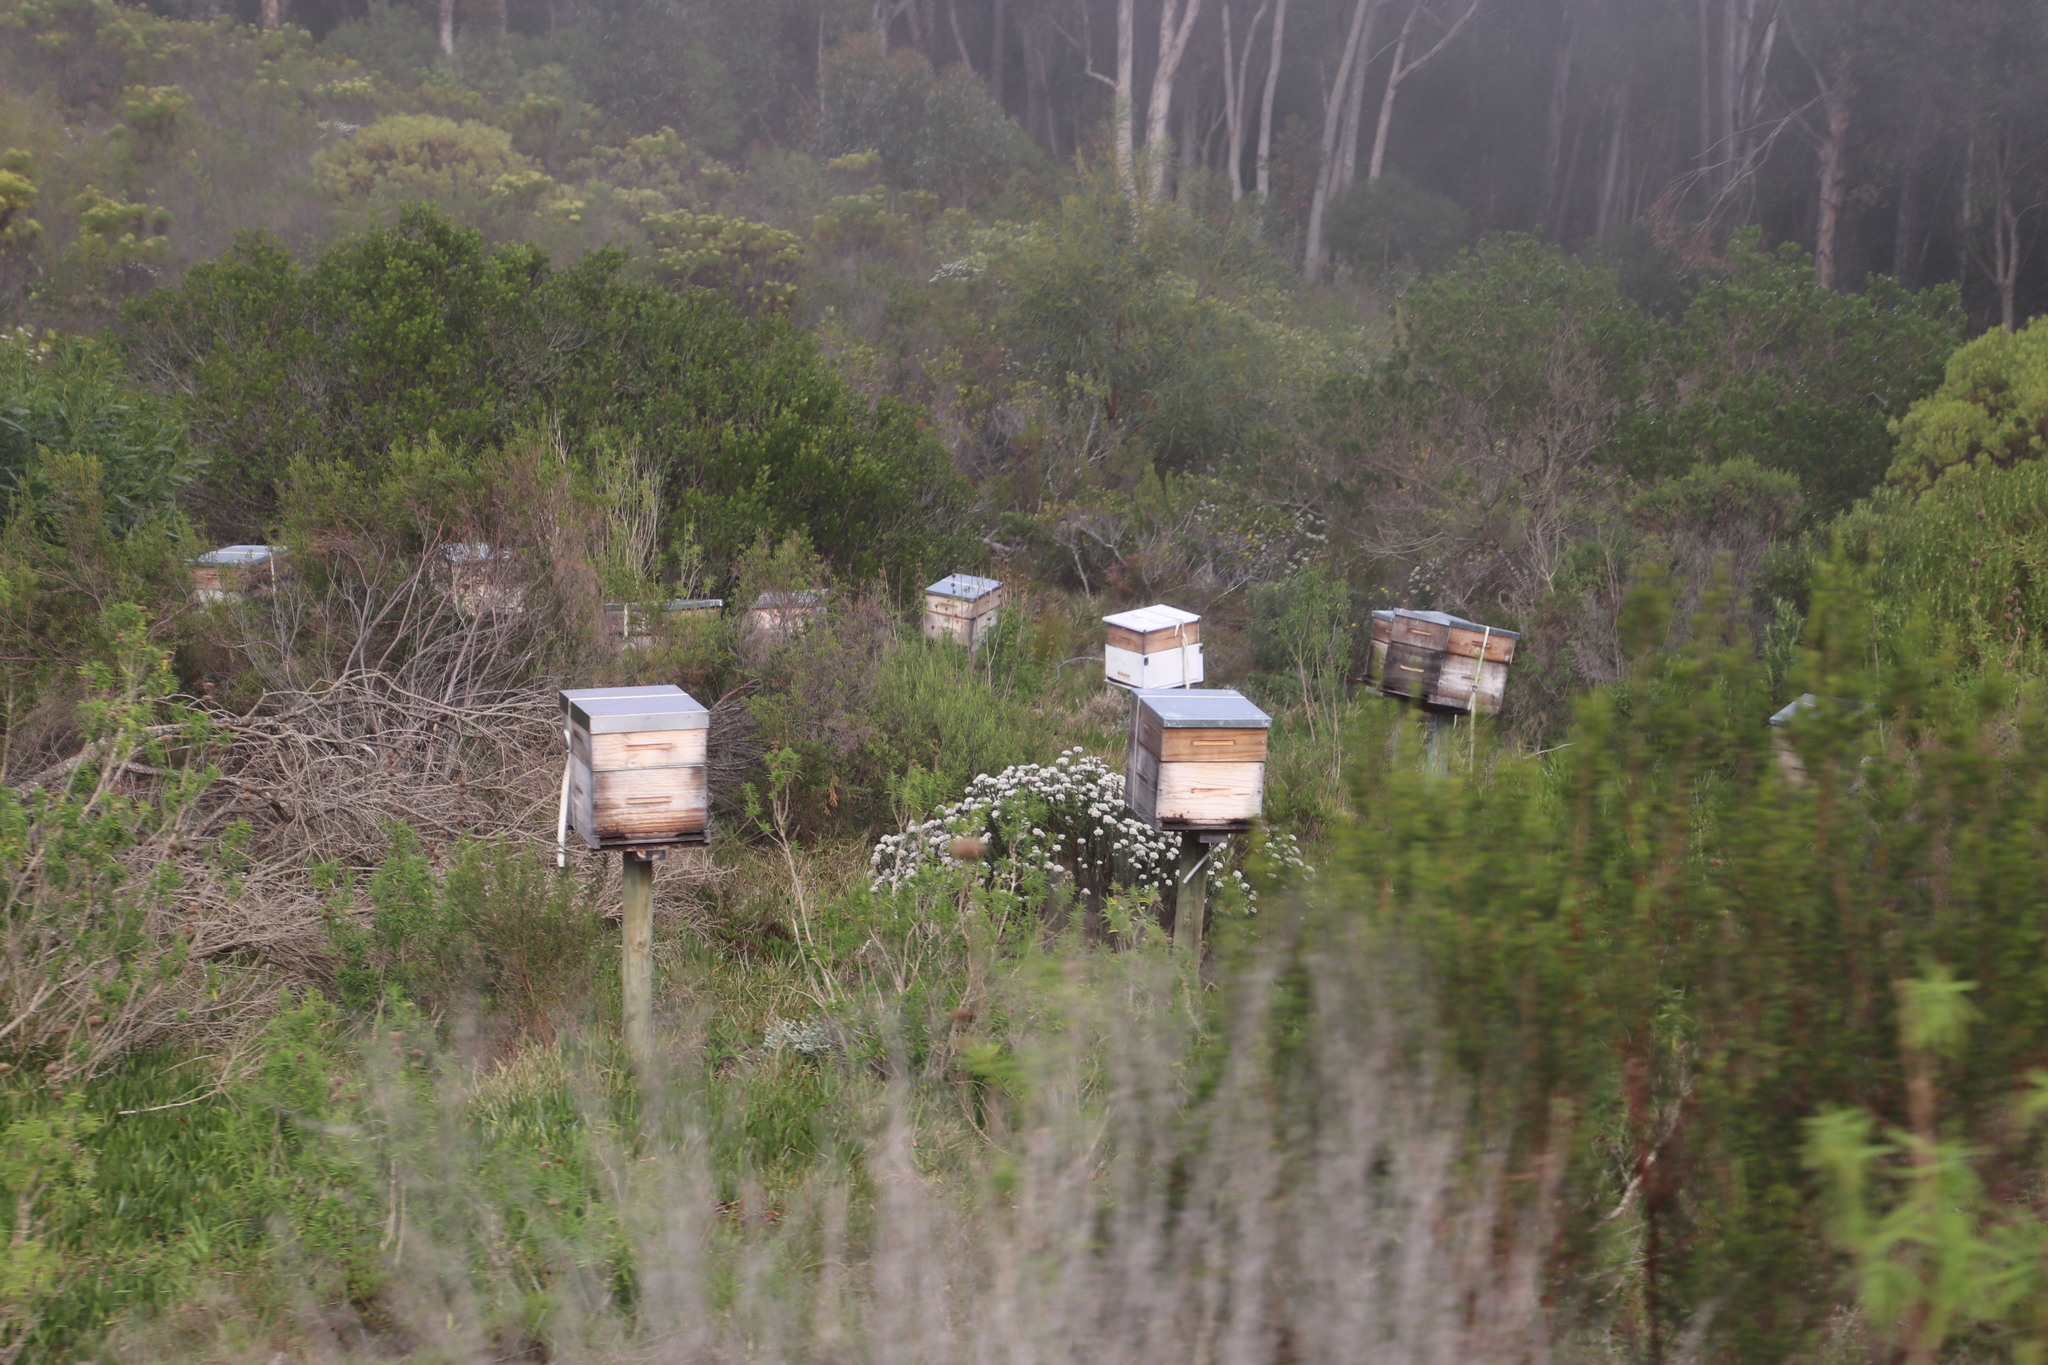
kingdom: Animalia
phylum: Arthropoda
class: Insecta
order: Hymenoptera
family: Apidae
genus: Apis
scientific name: Apis mellifera
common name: Honey bee
